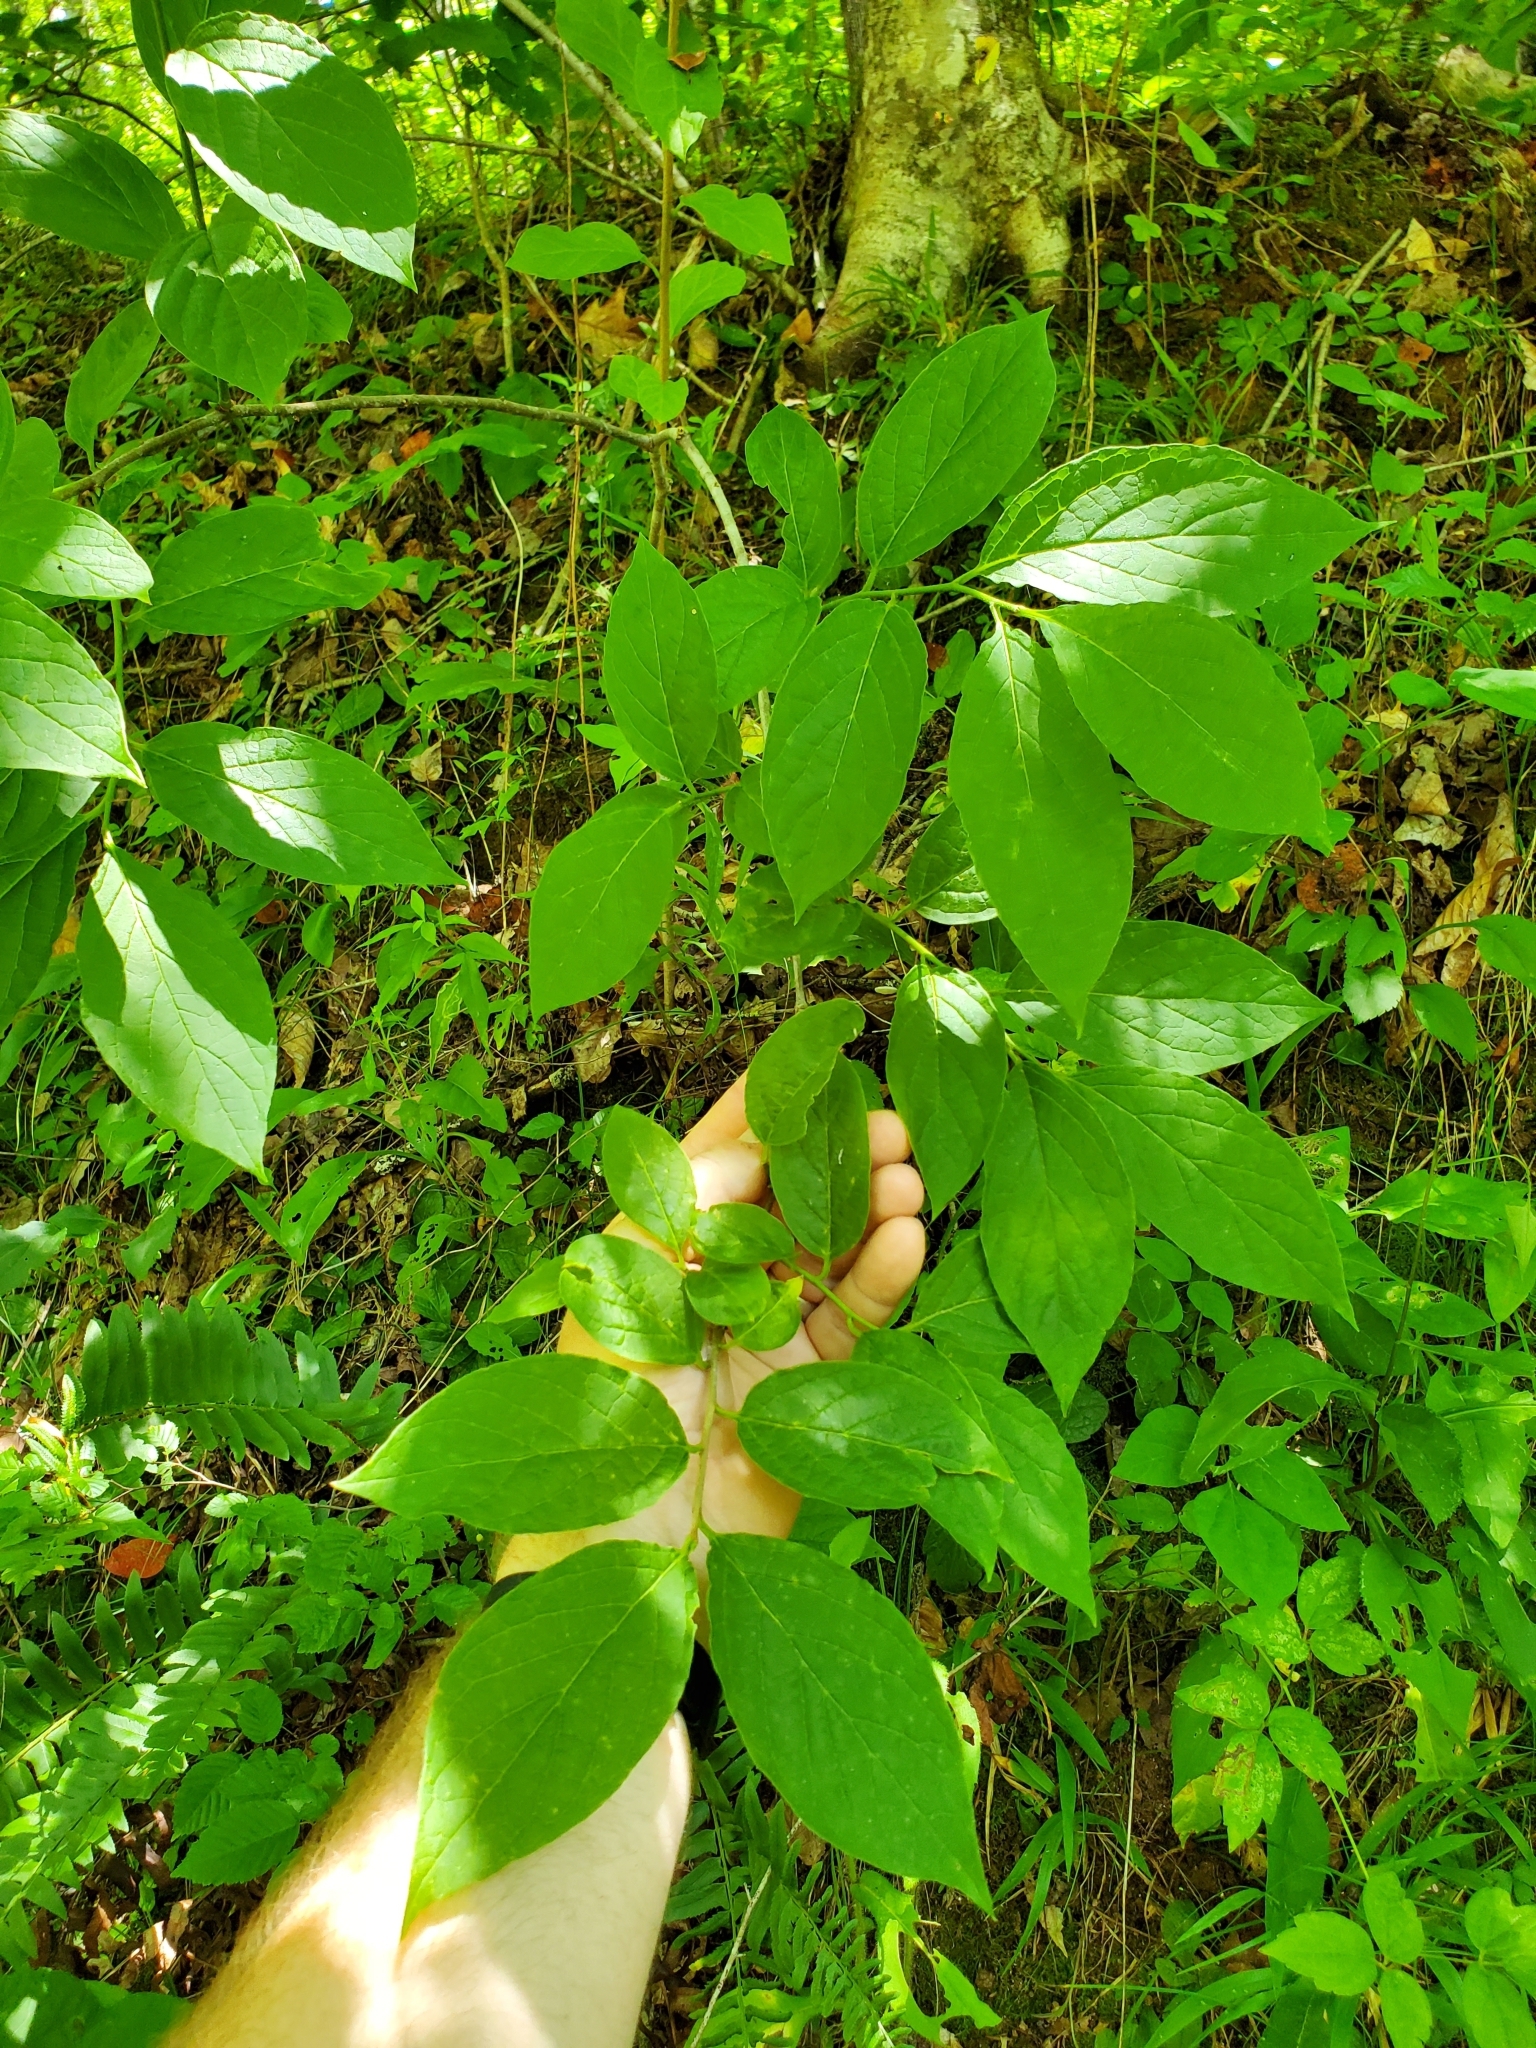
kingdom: Plantae
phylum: Tracheophyta
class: Magnoliopsida
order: Santalales
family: Cervantesiaceae
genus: Pyrularia
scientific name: Pyrularia pubera
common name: Oilnut
